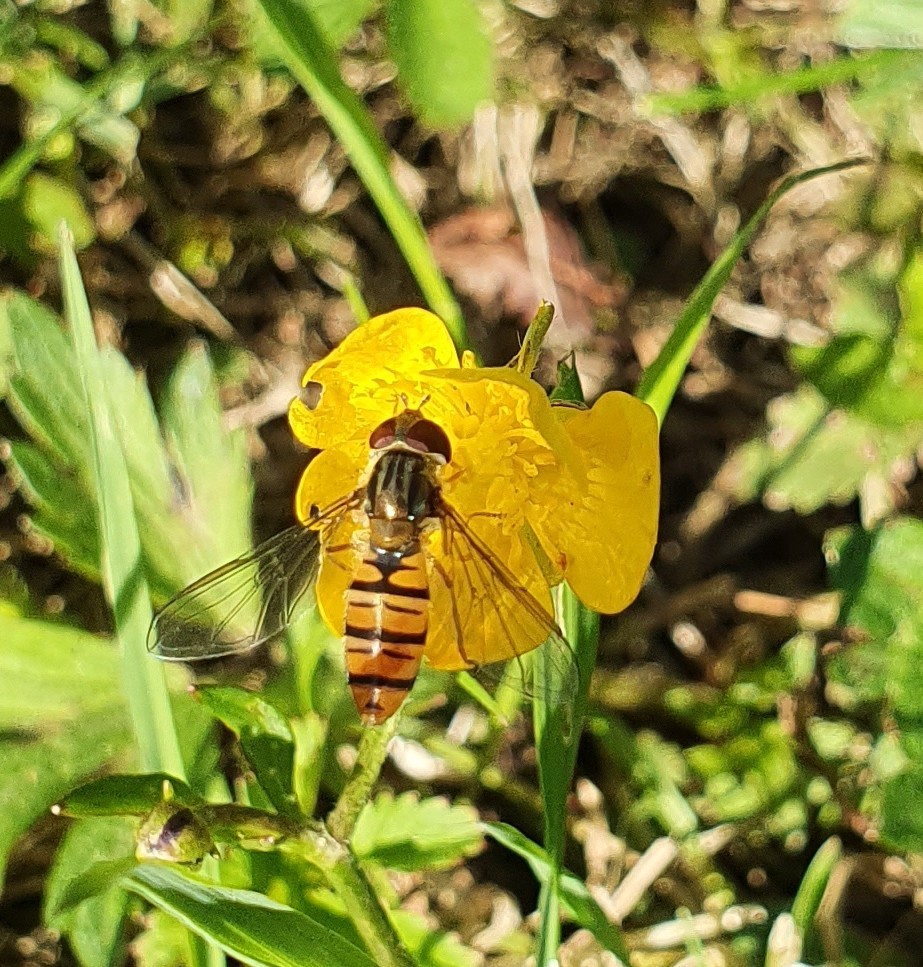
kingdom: Animalia
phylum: Arthropoda
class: Insecta
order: Diptera
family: Syrphidae
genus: Episyrphus
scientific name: Episyrphus balteatus
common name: Marmalade hoverfly
